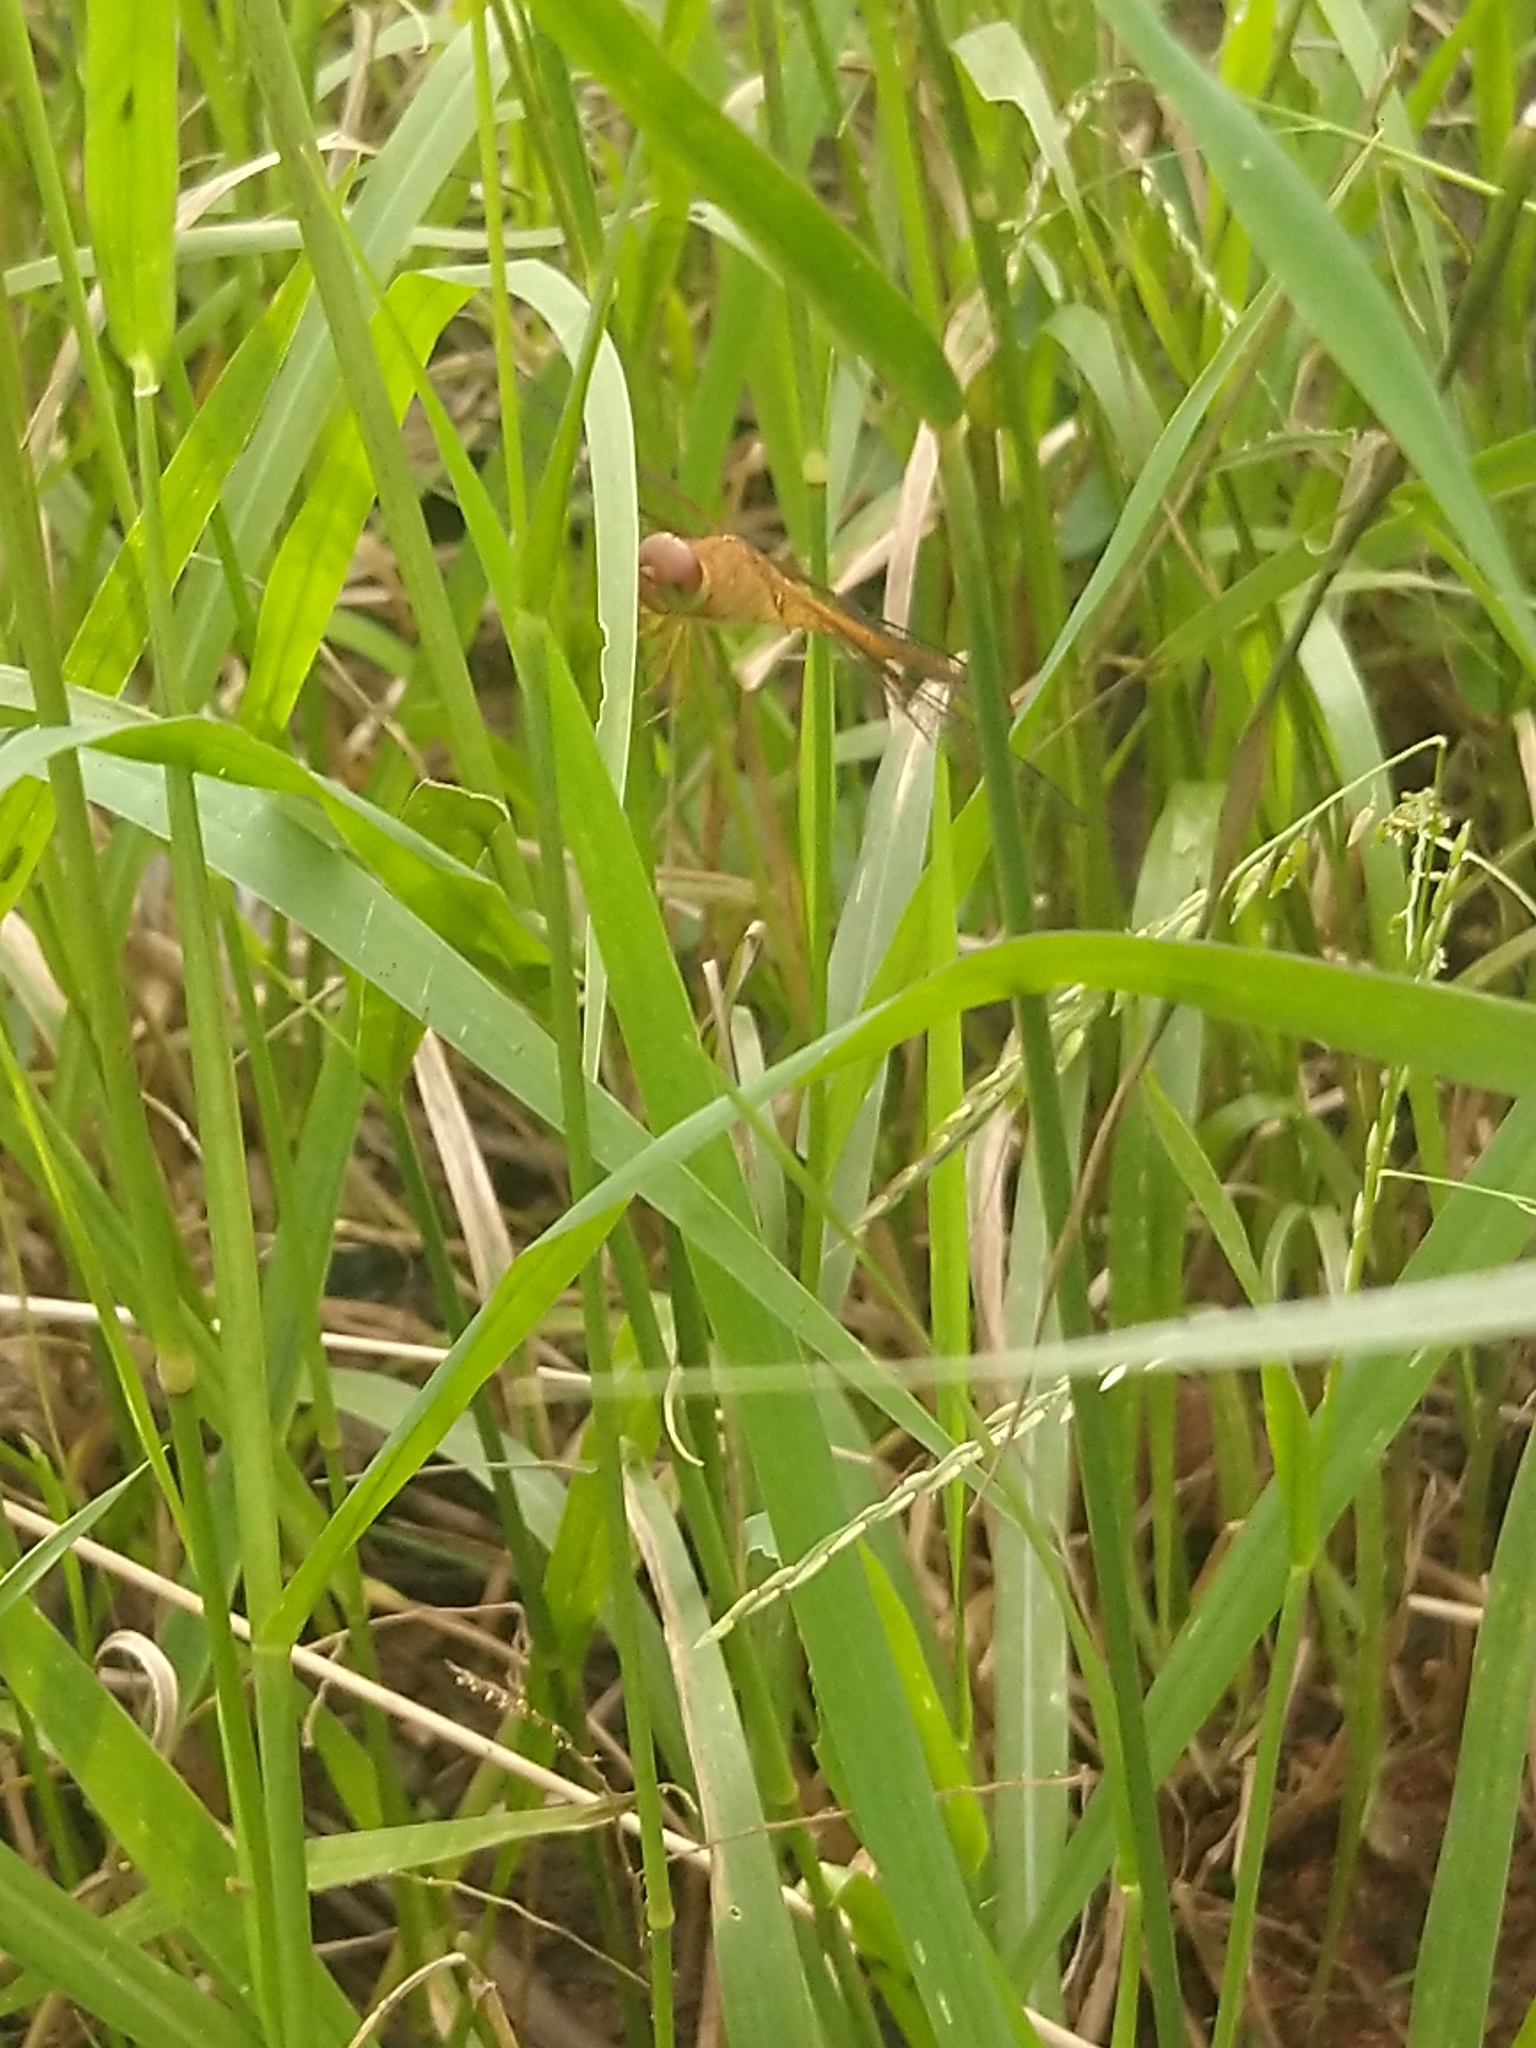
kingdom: Animalia
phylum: Arthropoda
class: Insecta
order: Odonata
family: Libellulidae
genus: Tholymis
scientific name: Tholymis tillarga
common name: Coral-tailed cloud wing
